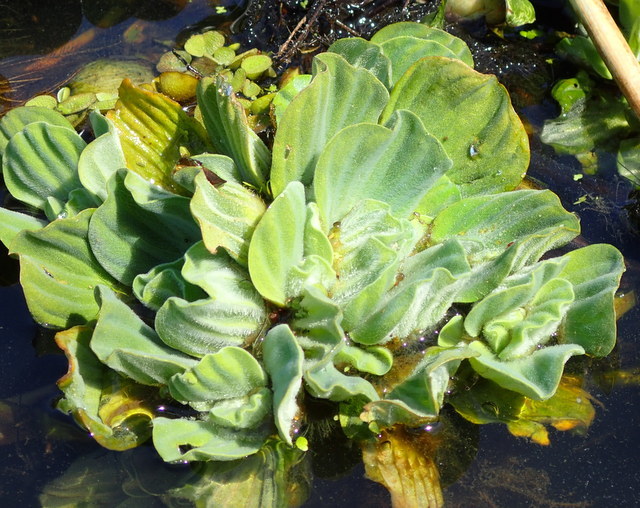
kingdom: Plantae
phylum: Tracheophyta
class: Liliopsida
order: Alismatales
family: Araceae
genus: Pistia
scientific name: Pistia stratiotes
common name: Water lettuce
